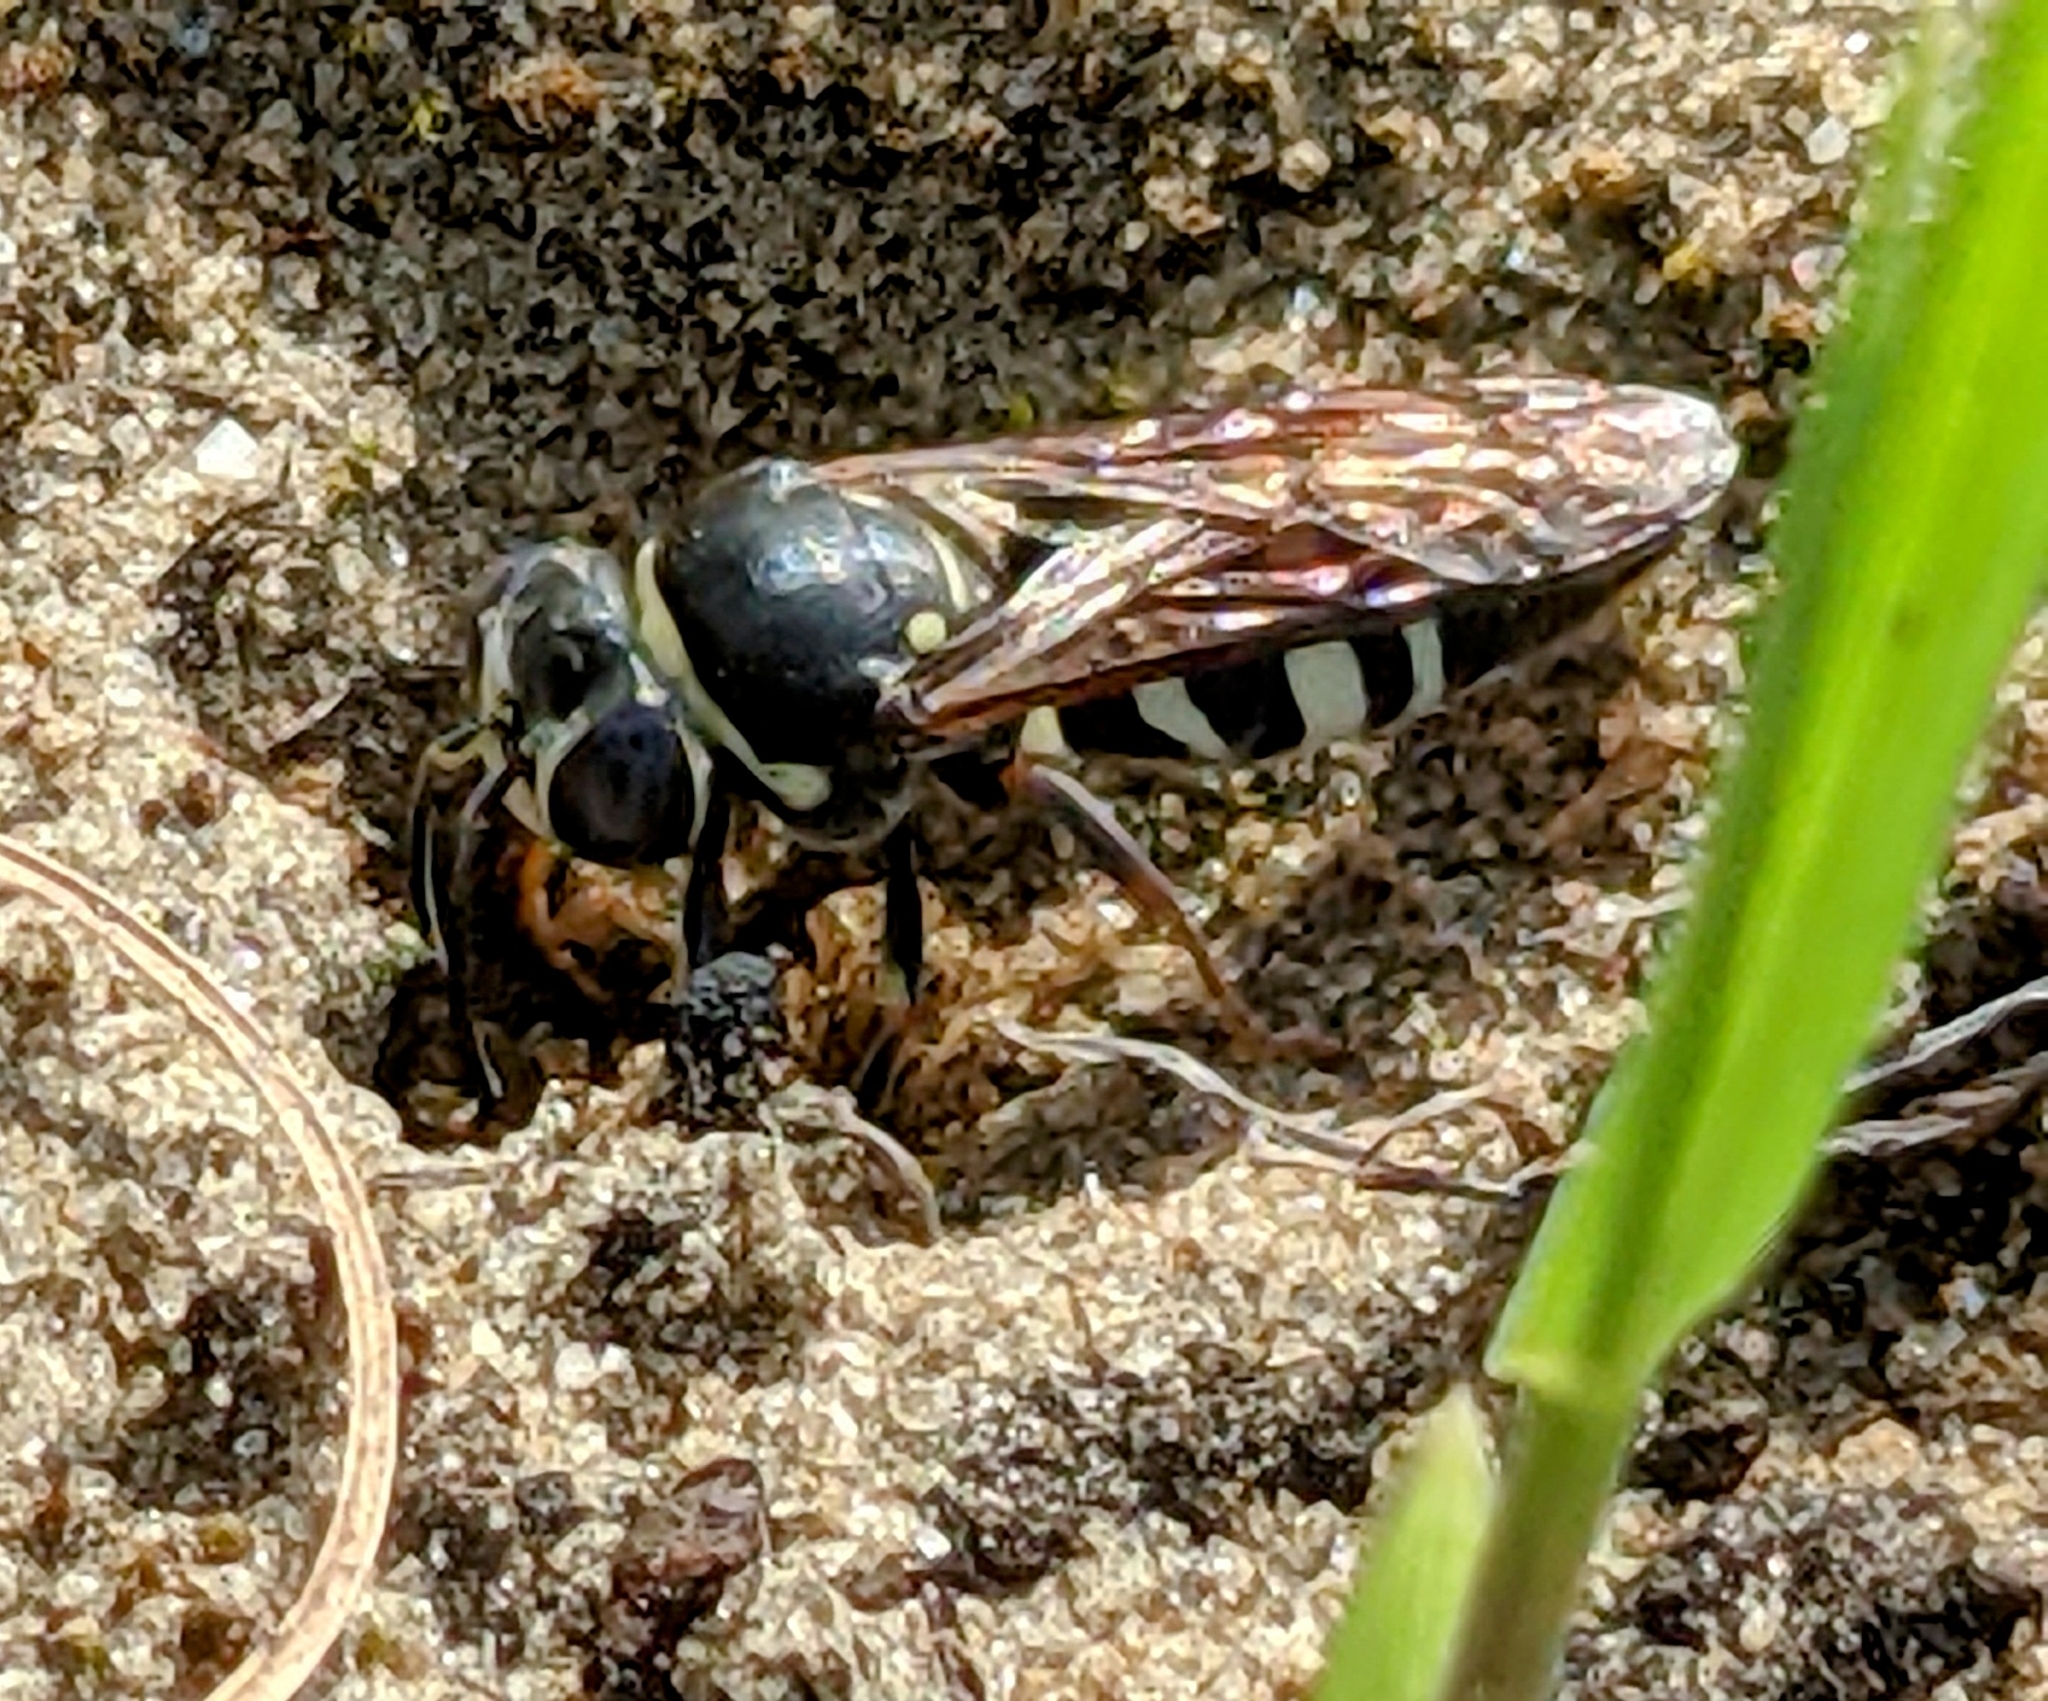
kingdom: Animalia
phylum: Arthropoda
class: Insecta
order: Hymenoptera
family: Crabronidae
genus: Bicyrtes
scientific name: Bicyrtes ventralis
